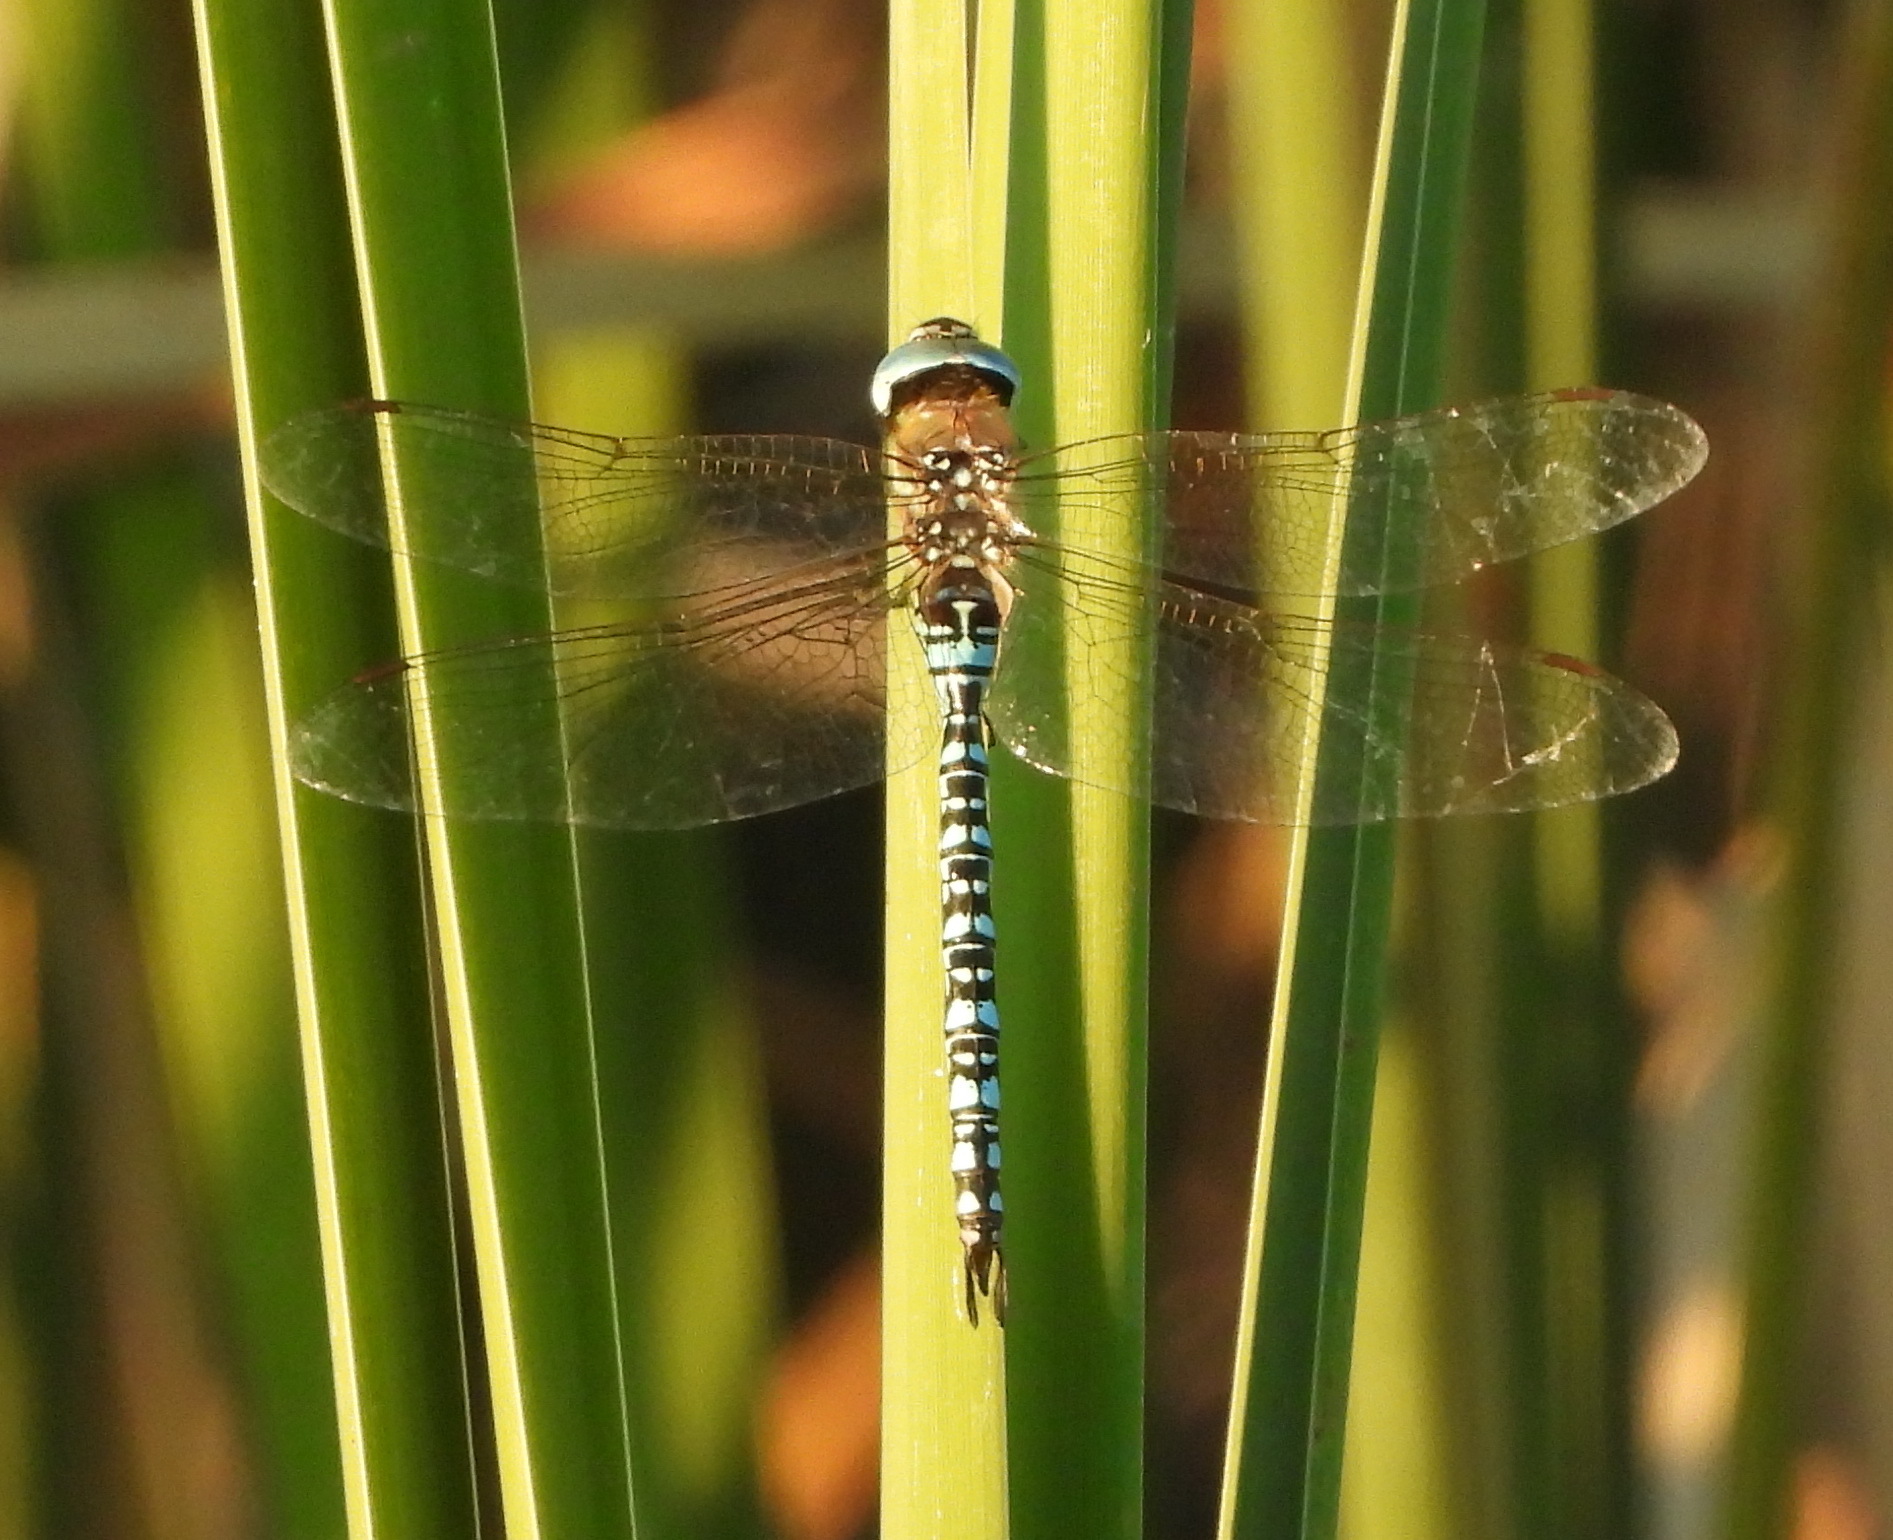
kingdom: Animalia
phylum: Arthropoda
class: Insecta
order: Odonata
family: Aeshnidae
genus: Aeshna
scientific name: Aeshna soneharai
